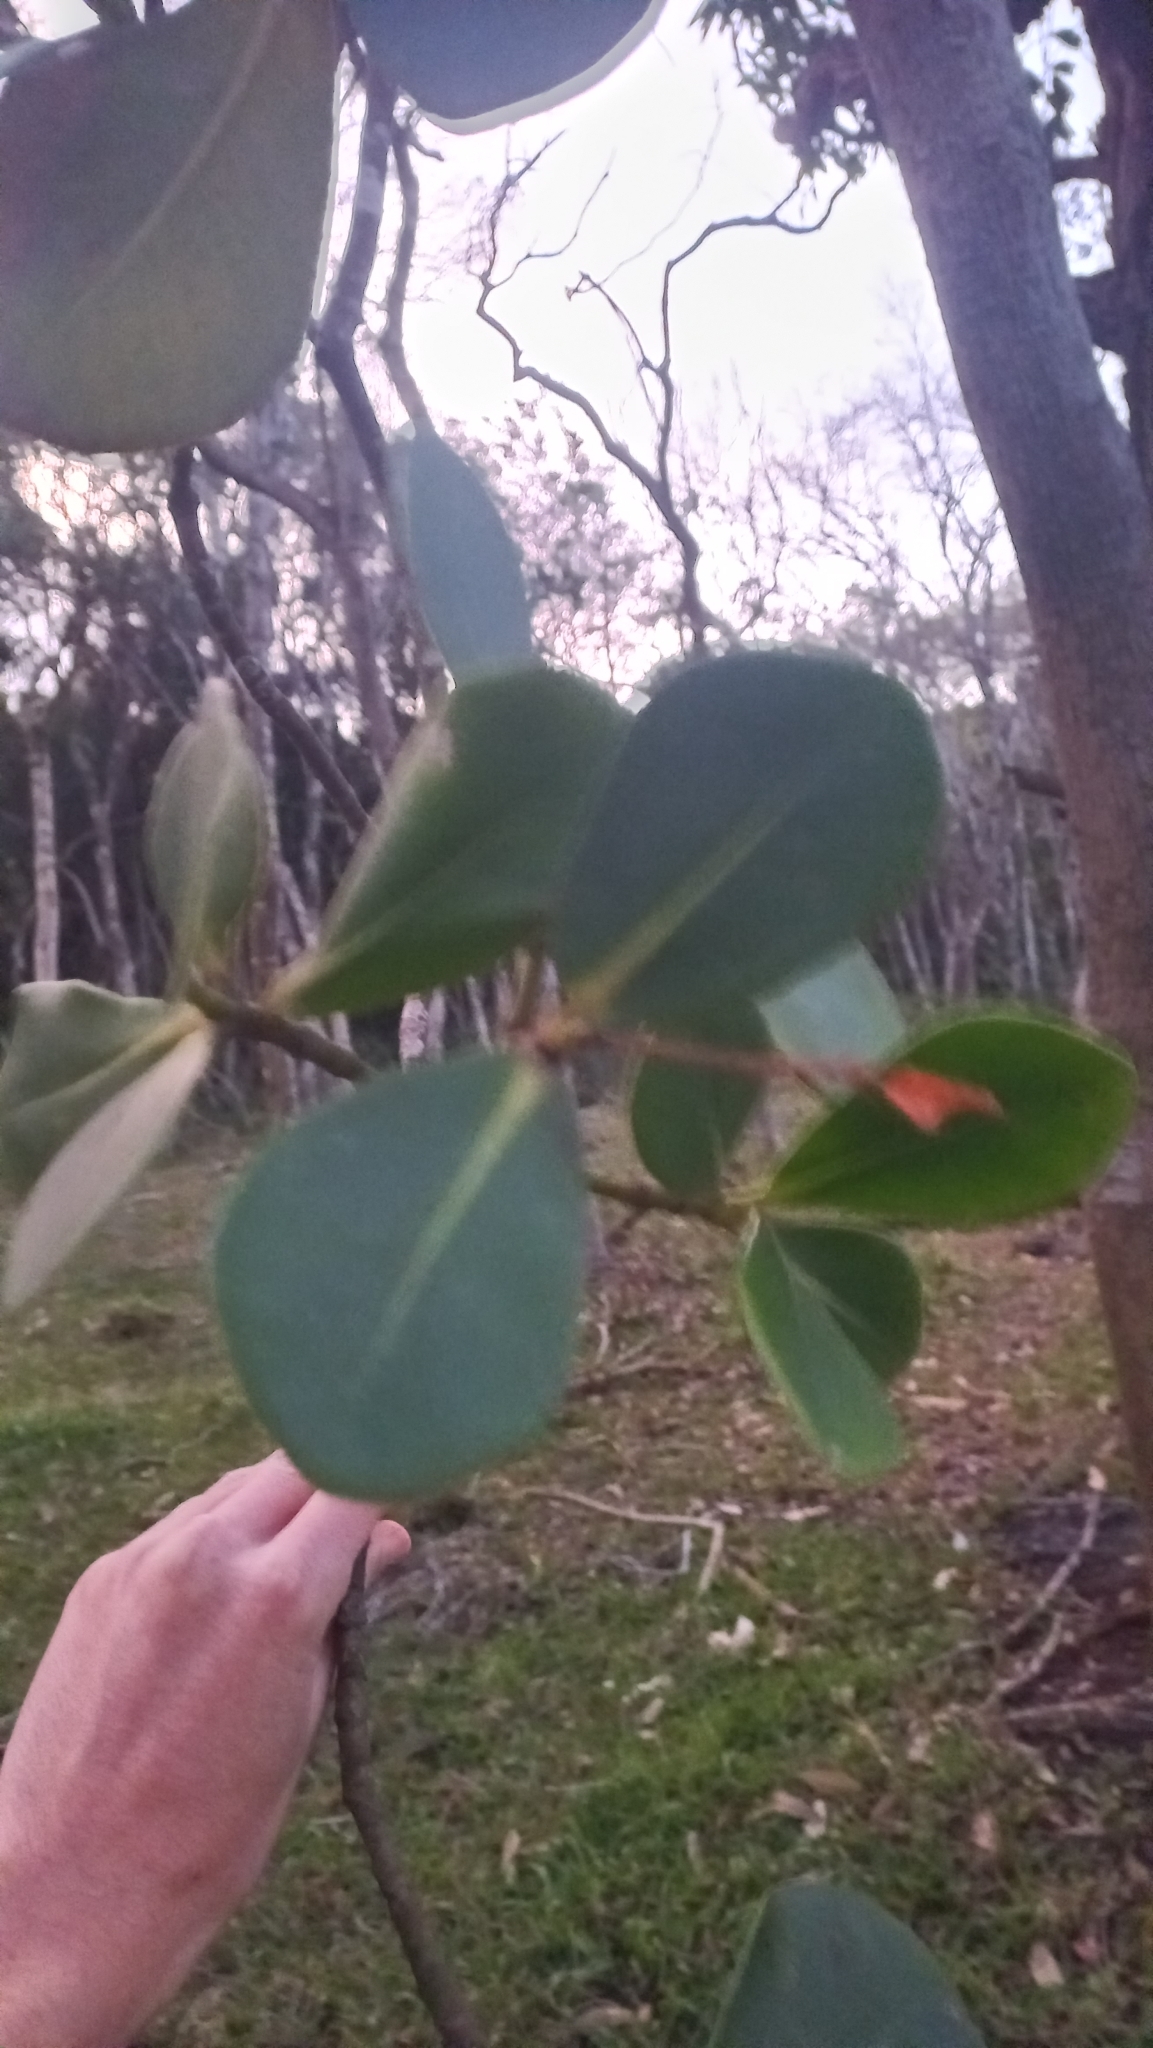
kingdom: Plantae
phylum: Tracheophyta
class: Magnoliopsida
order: Malpighiales
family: Clusiaceae
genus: Clusia
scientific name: Clusia criuva
